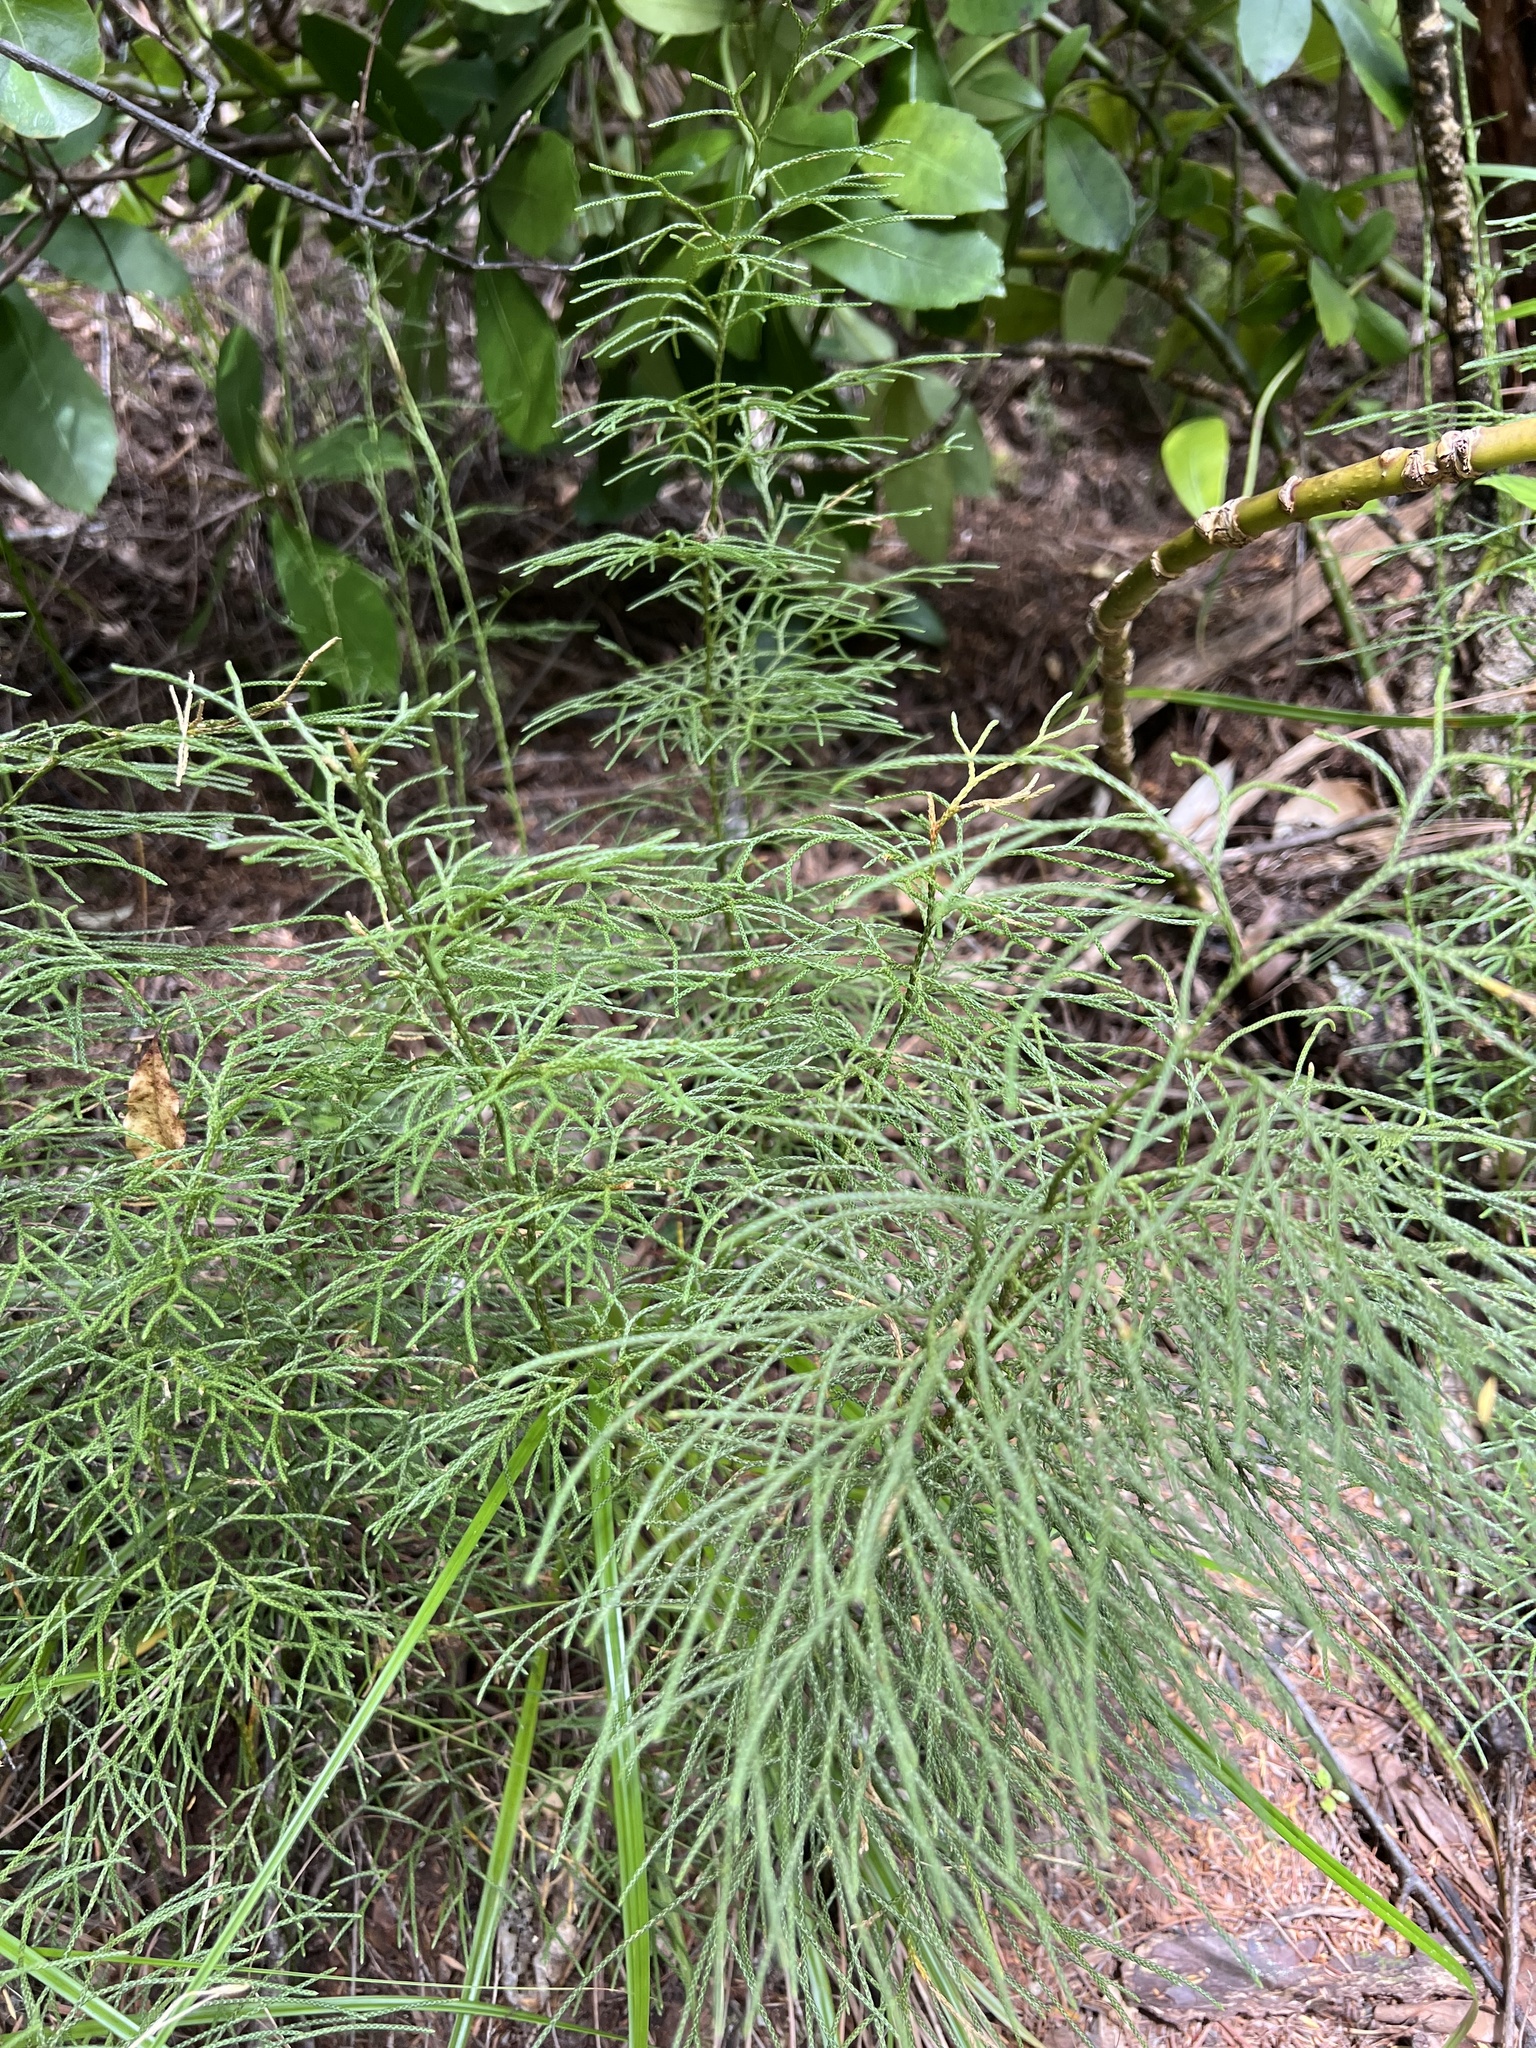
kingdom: Plantae
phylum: Tracheophyta
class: Lycopodiopsida
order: Lycopodiales
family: Lycopodiaceae
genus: Pseudolycopodium
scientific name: Pseudolycopodium densum
